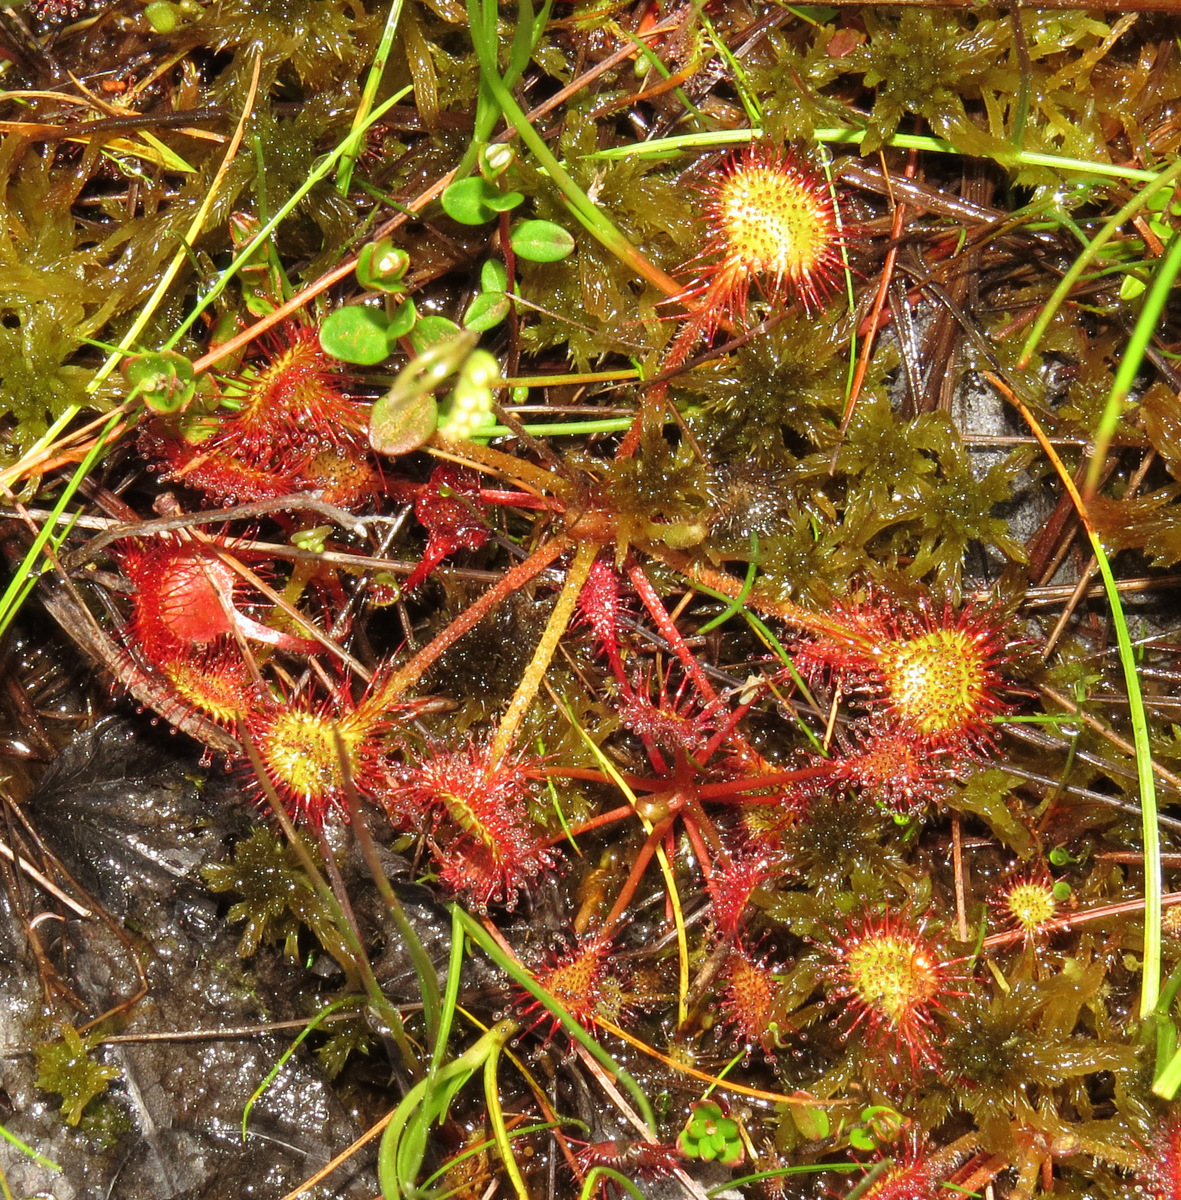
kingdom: Plantae
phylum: Tracheophyta
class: Magnoliopsida
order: Caryophyllales
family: Droseraceae
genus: Drosera
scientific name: Drosera rotundifolia
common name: Round-leaved sundew
